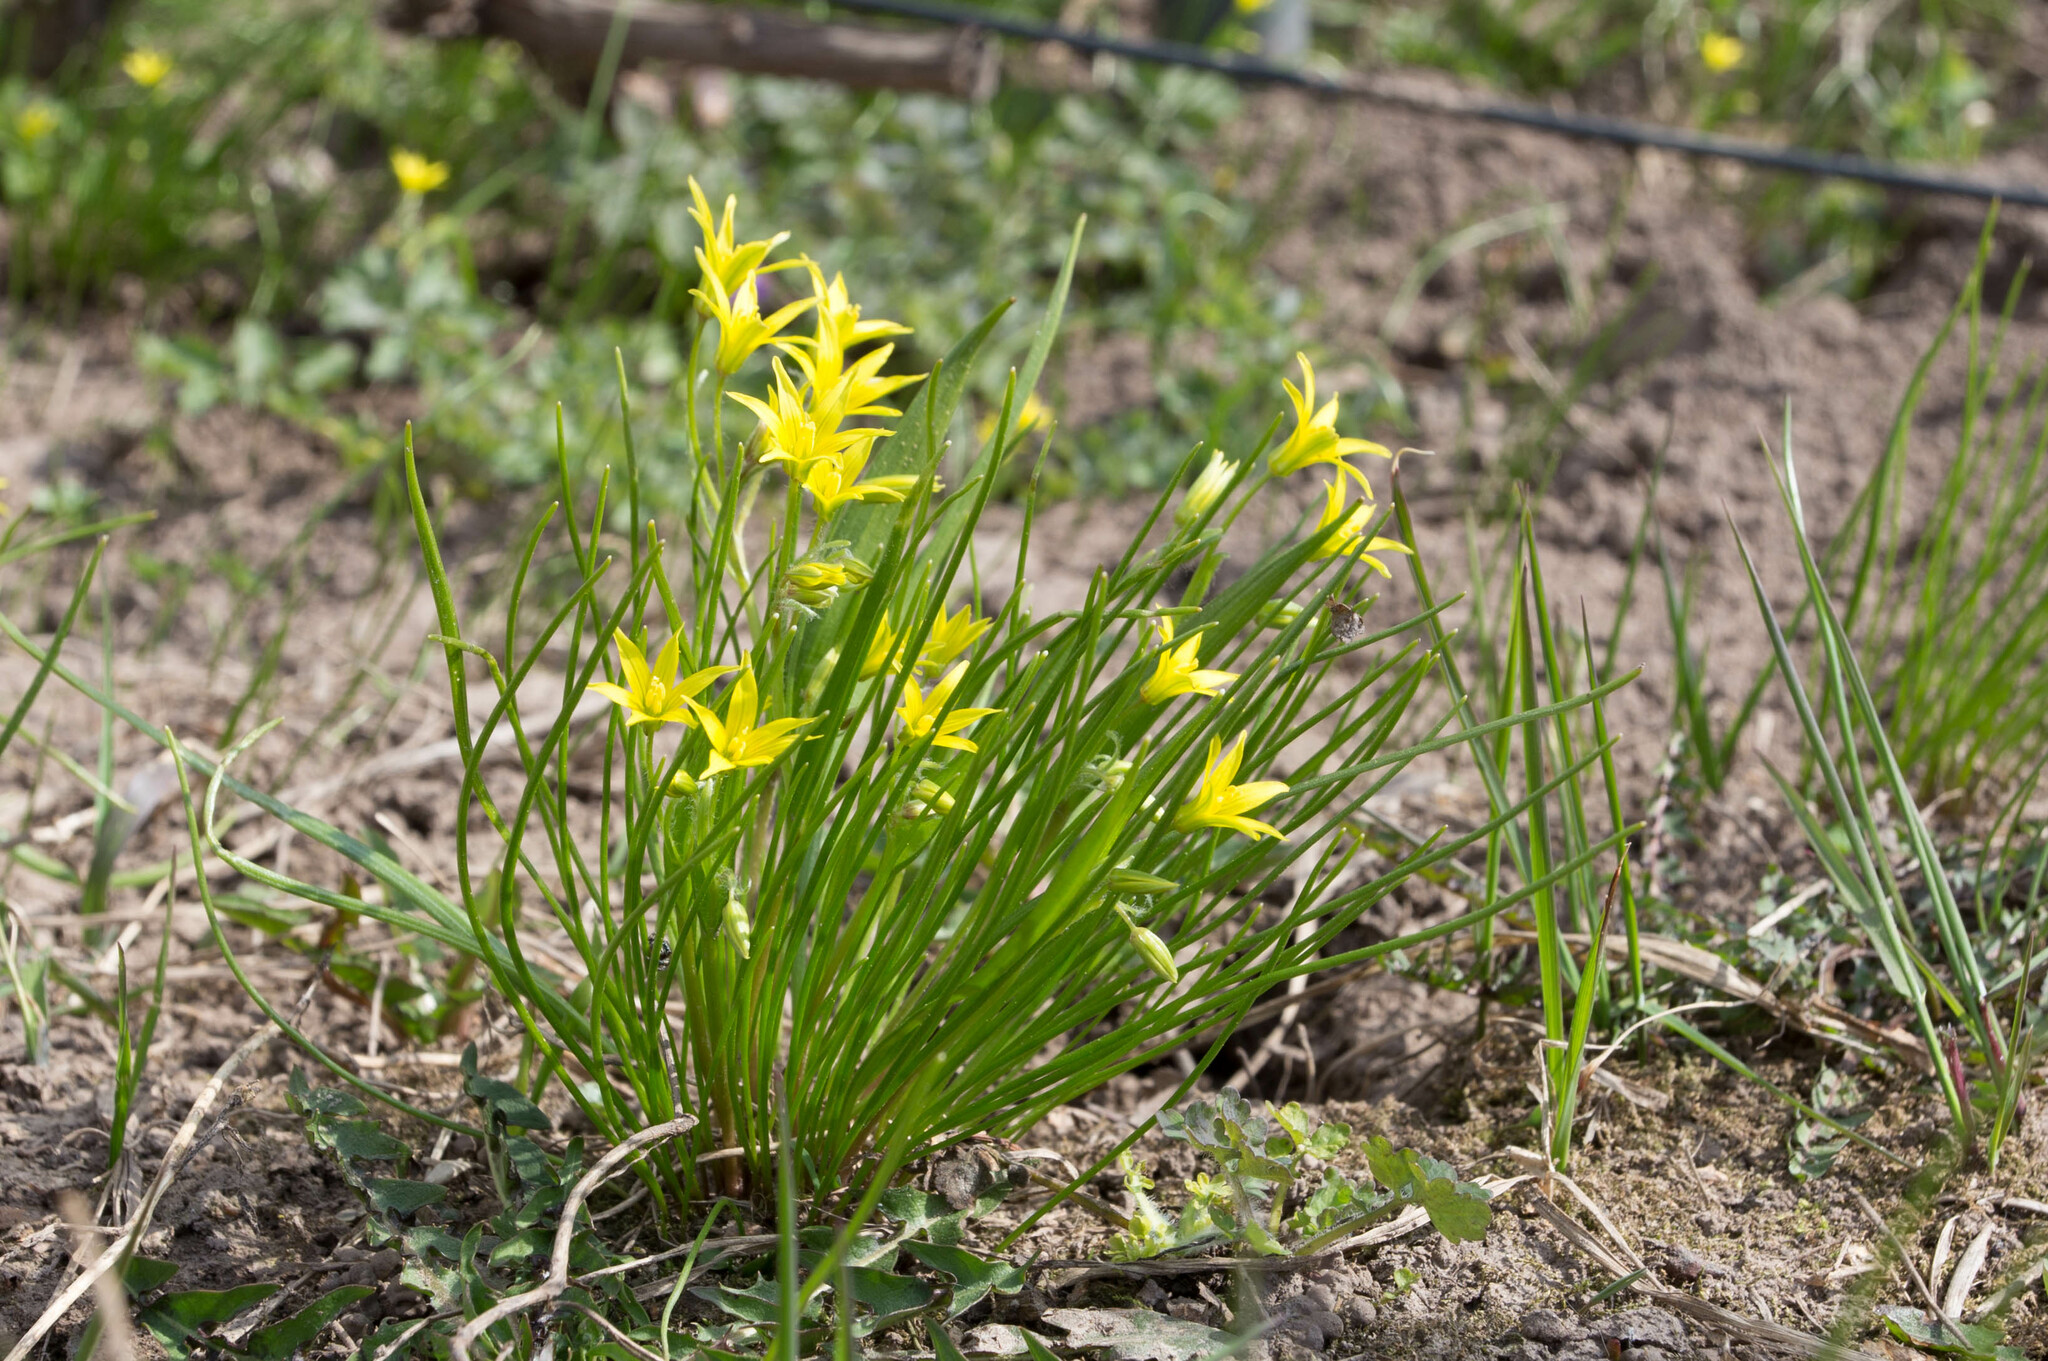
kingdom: Plantae
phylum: Tracheophyta
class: Liliopsida
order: Liliales
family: Liliaceae
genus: Gagea
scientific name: Gagea minima
